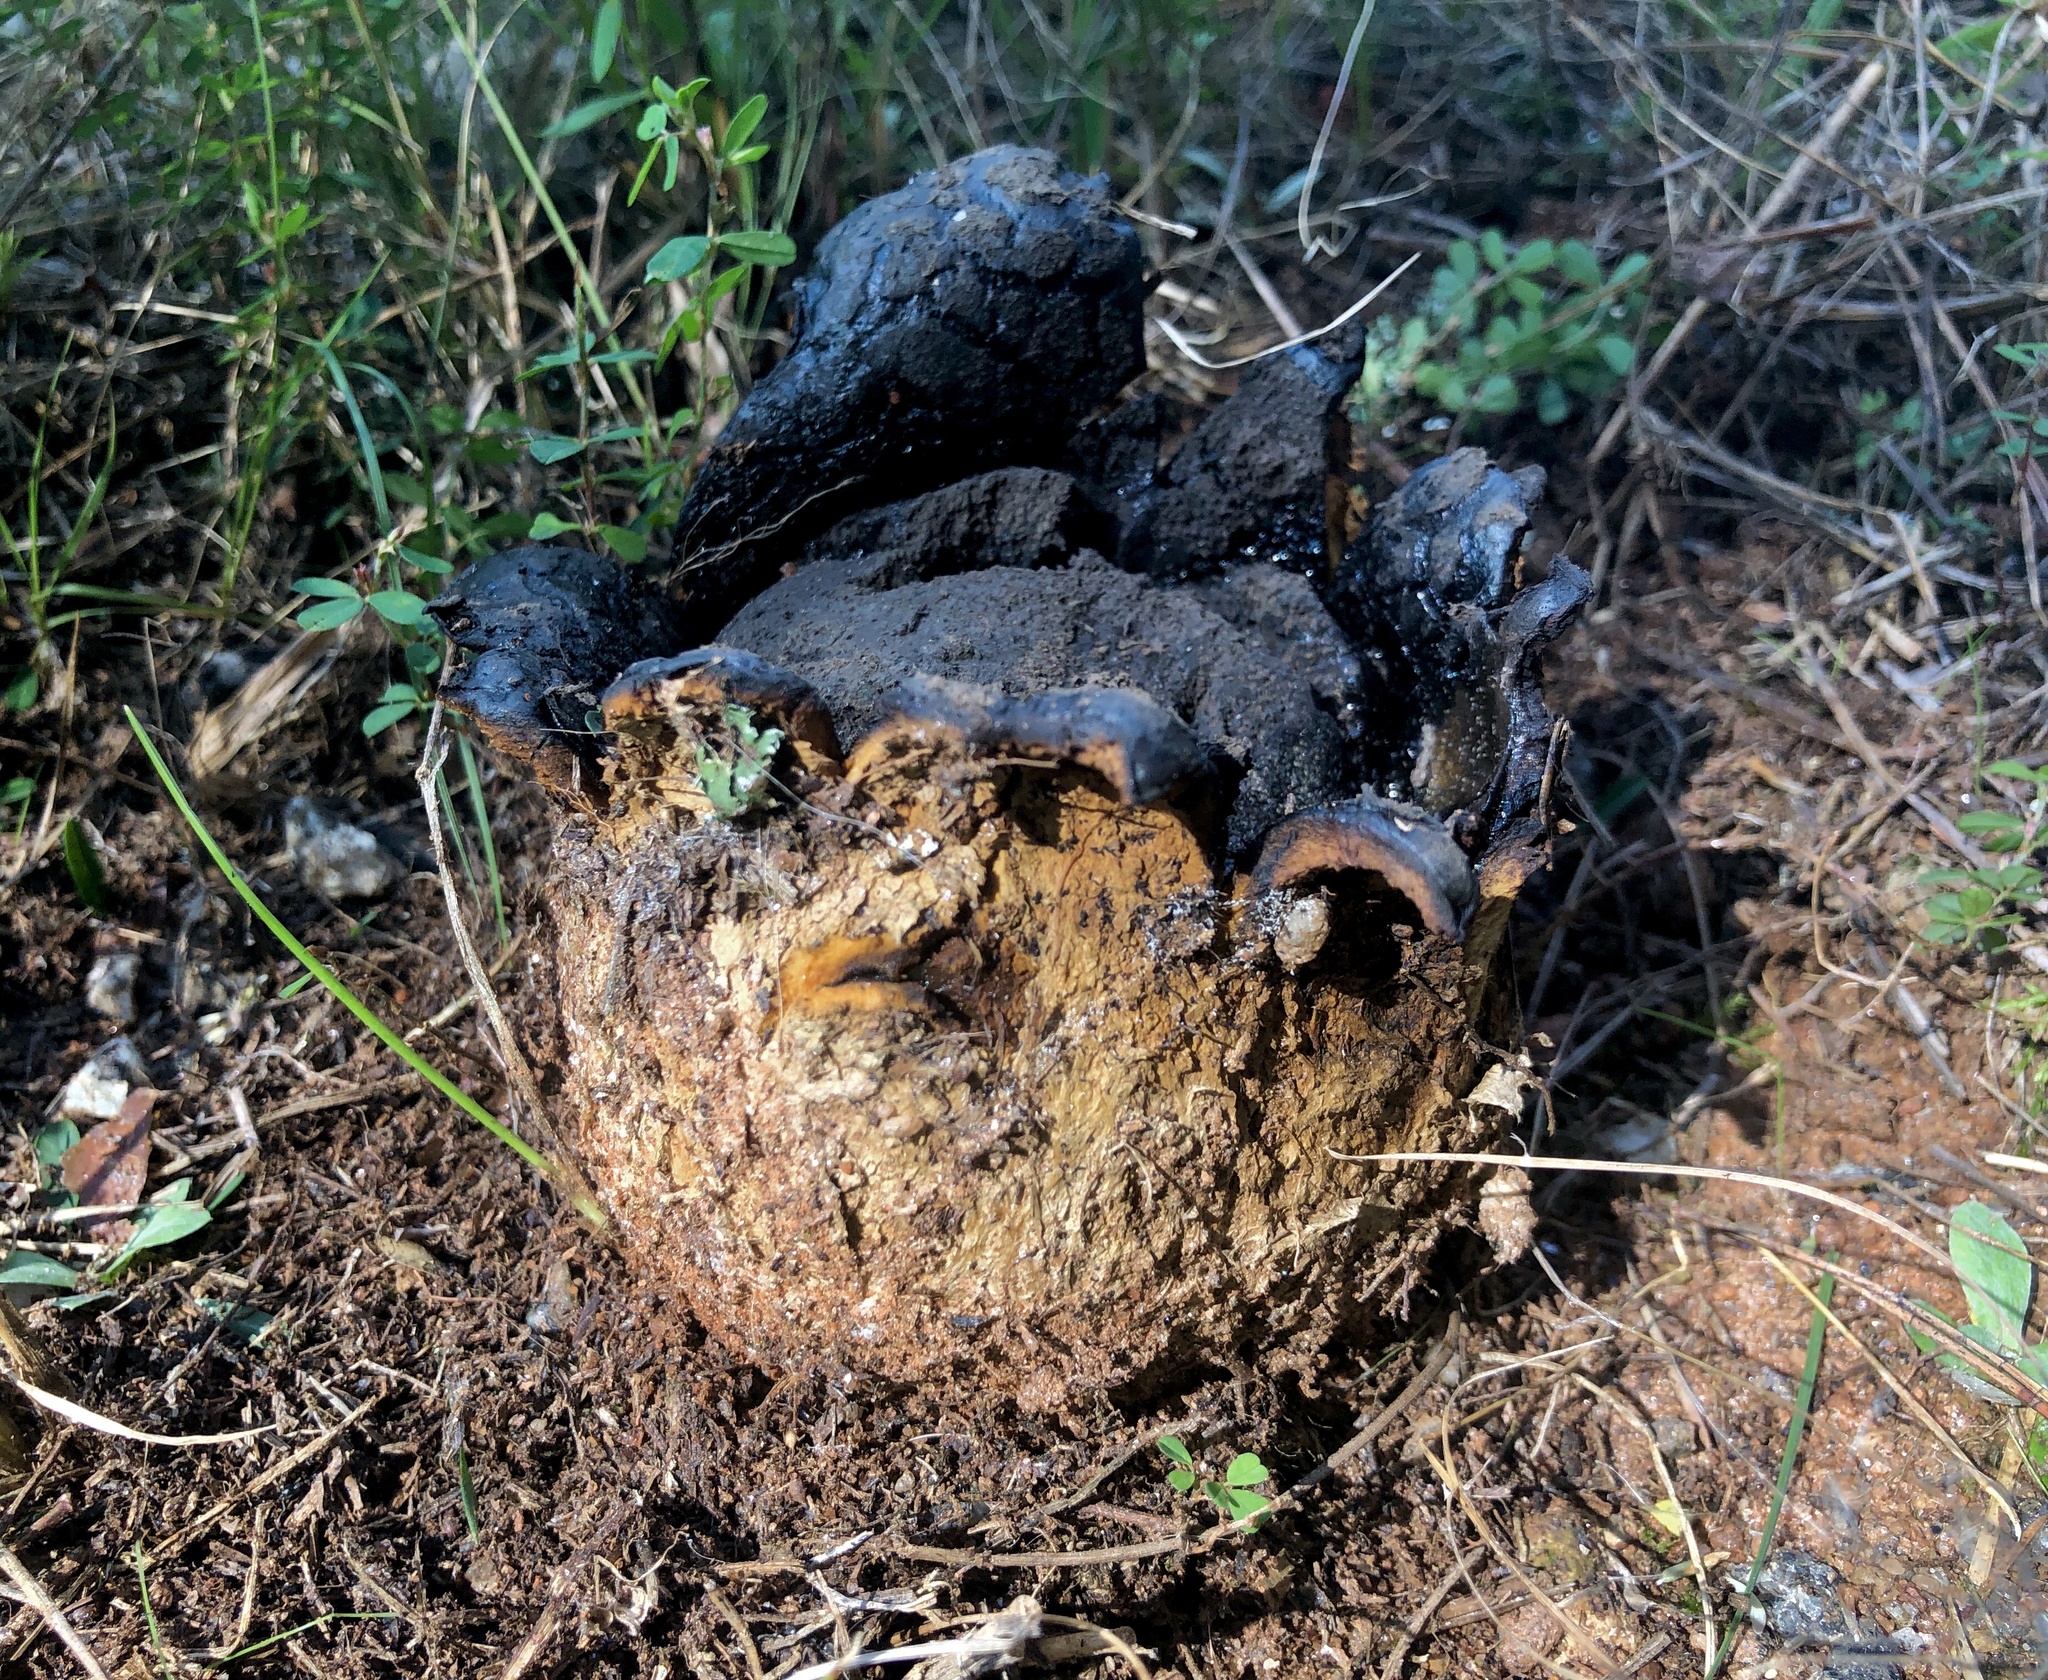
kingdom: Fungi
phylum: Basidiomycota
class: Agaricomycetes
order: Boletales
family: Sclerodermataceae
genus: Scleroderma
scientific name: Scleroderma polyrhizum
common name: Many-rooted earthball
